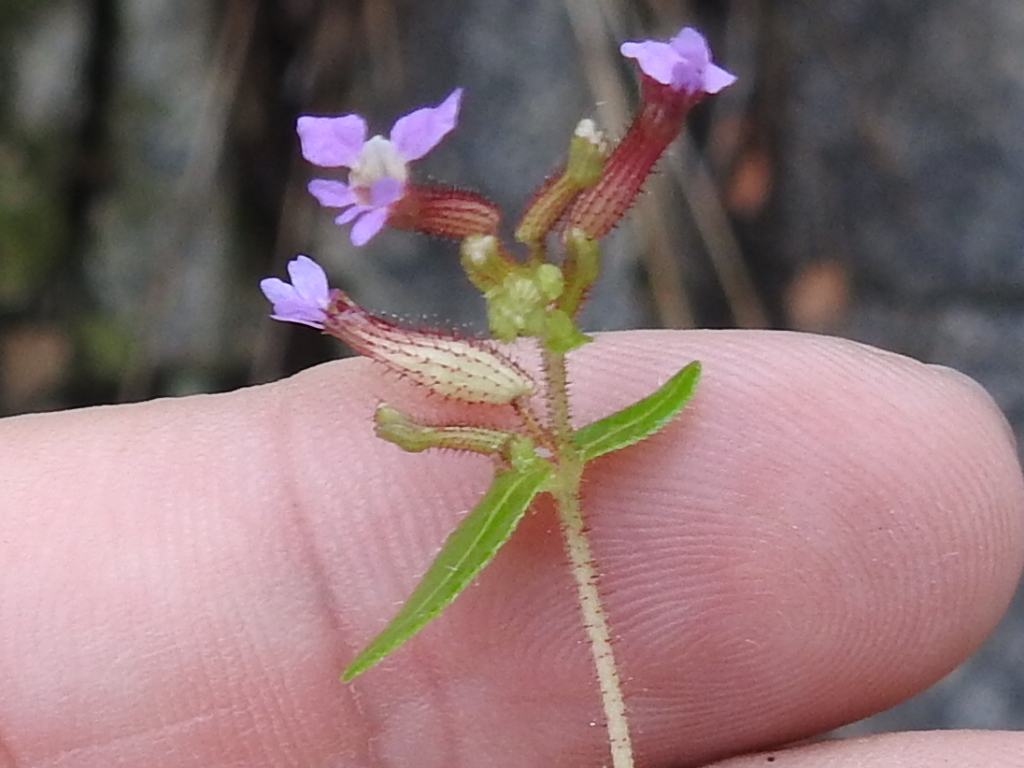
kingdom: Plantae
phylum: Tracheophyta
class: Magnoliopsida
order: Myrtales
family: Lythraceae
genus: Cuphea
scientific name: Cuphea wrightii
